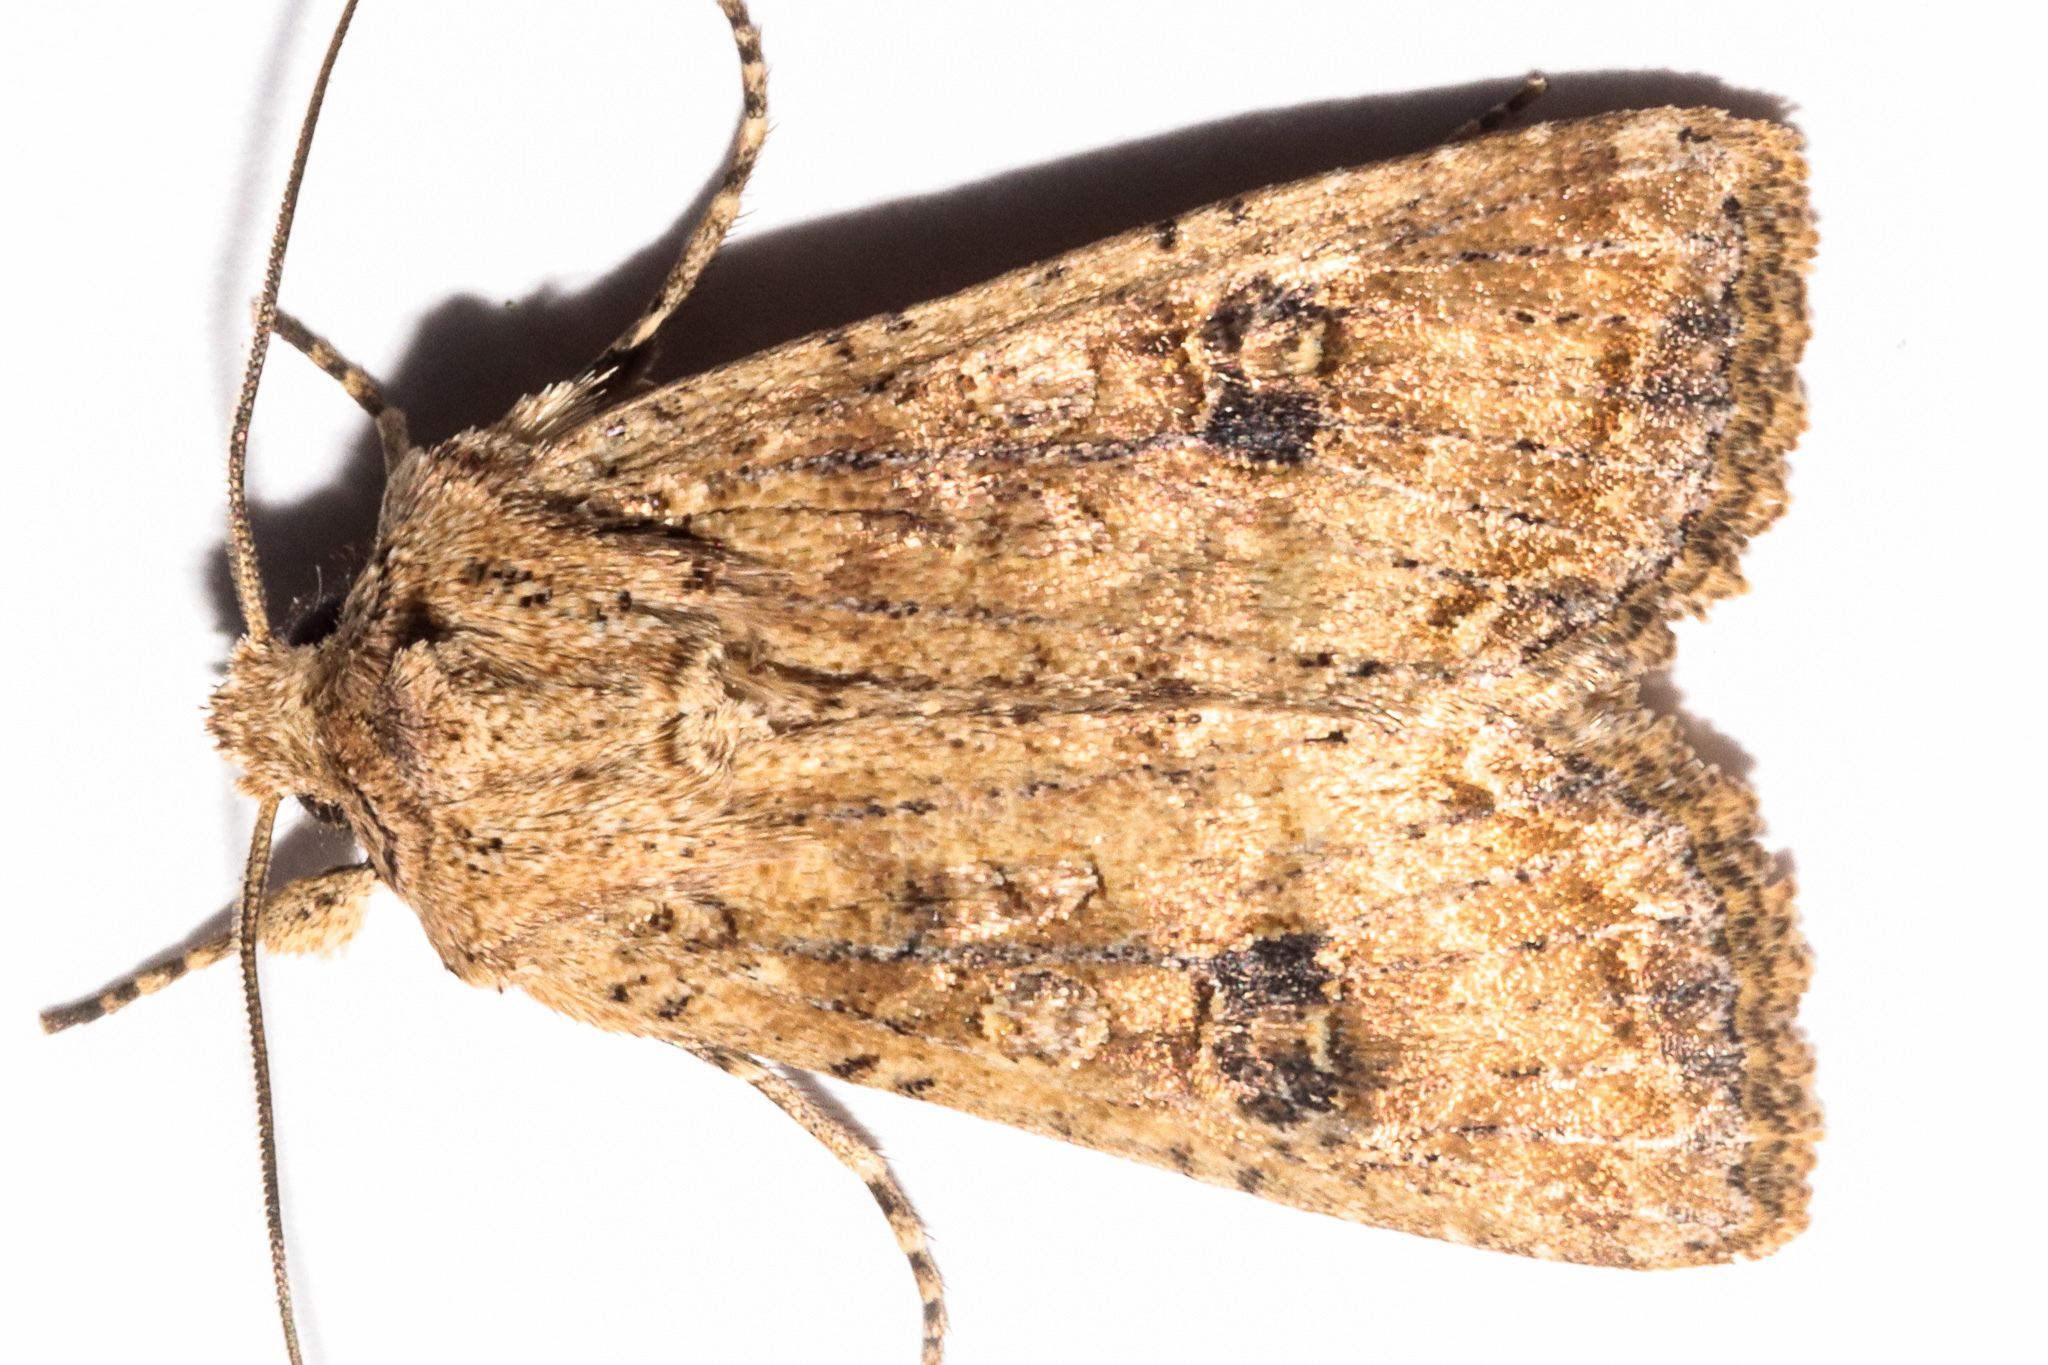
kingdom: Animalia
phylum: Arthropoda
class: Insecta
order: Lepidoptera
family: Noctuidae
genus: Ichneutica
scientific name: Ichneutica morosa
